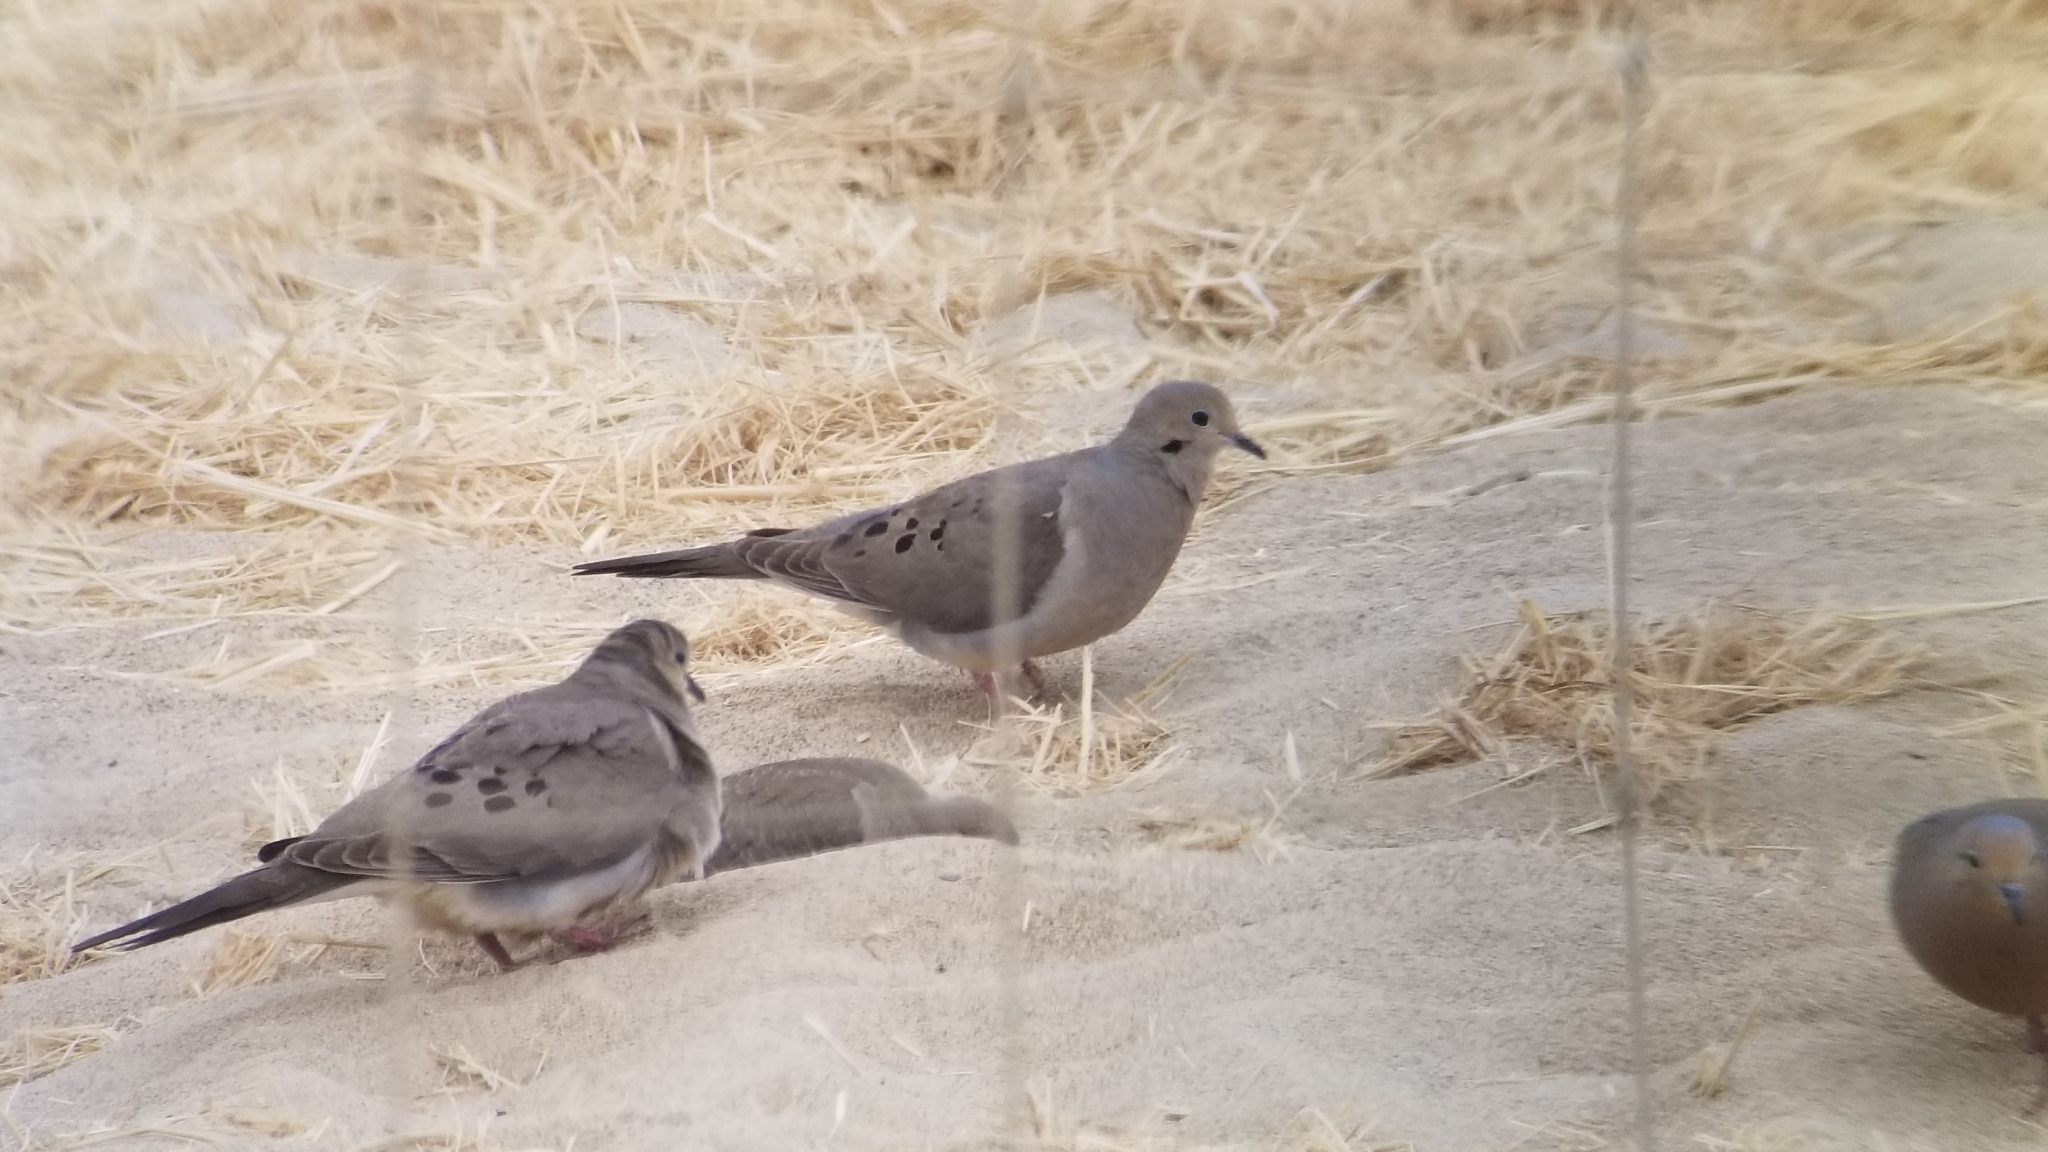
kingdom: Animalia
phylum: Chordata
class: Aves
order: Columbiformes
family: Columbidae
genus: Zenaida
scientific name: Zenaida macroura
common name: Mourning dove
